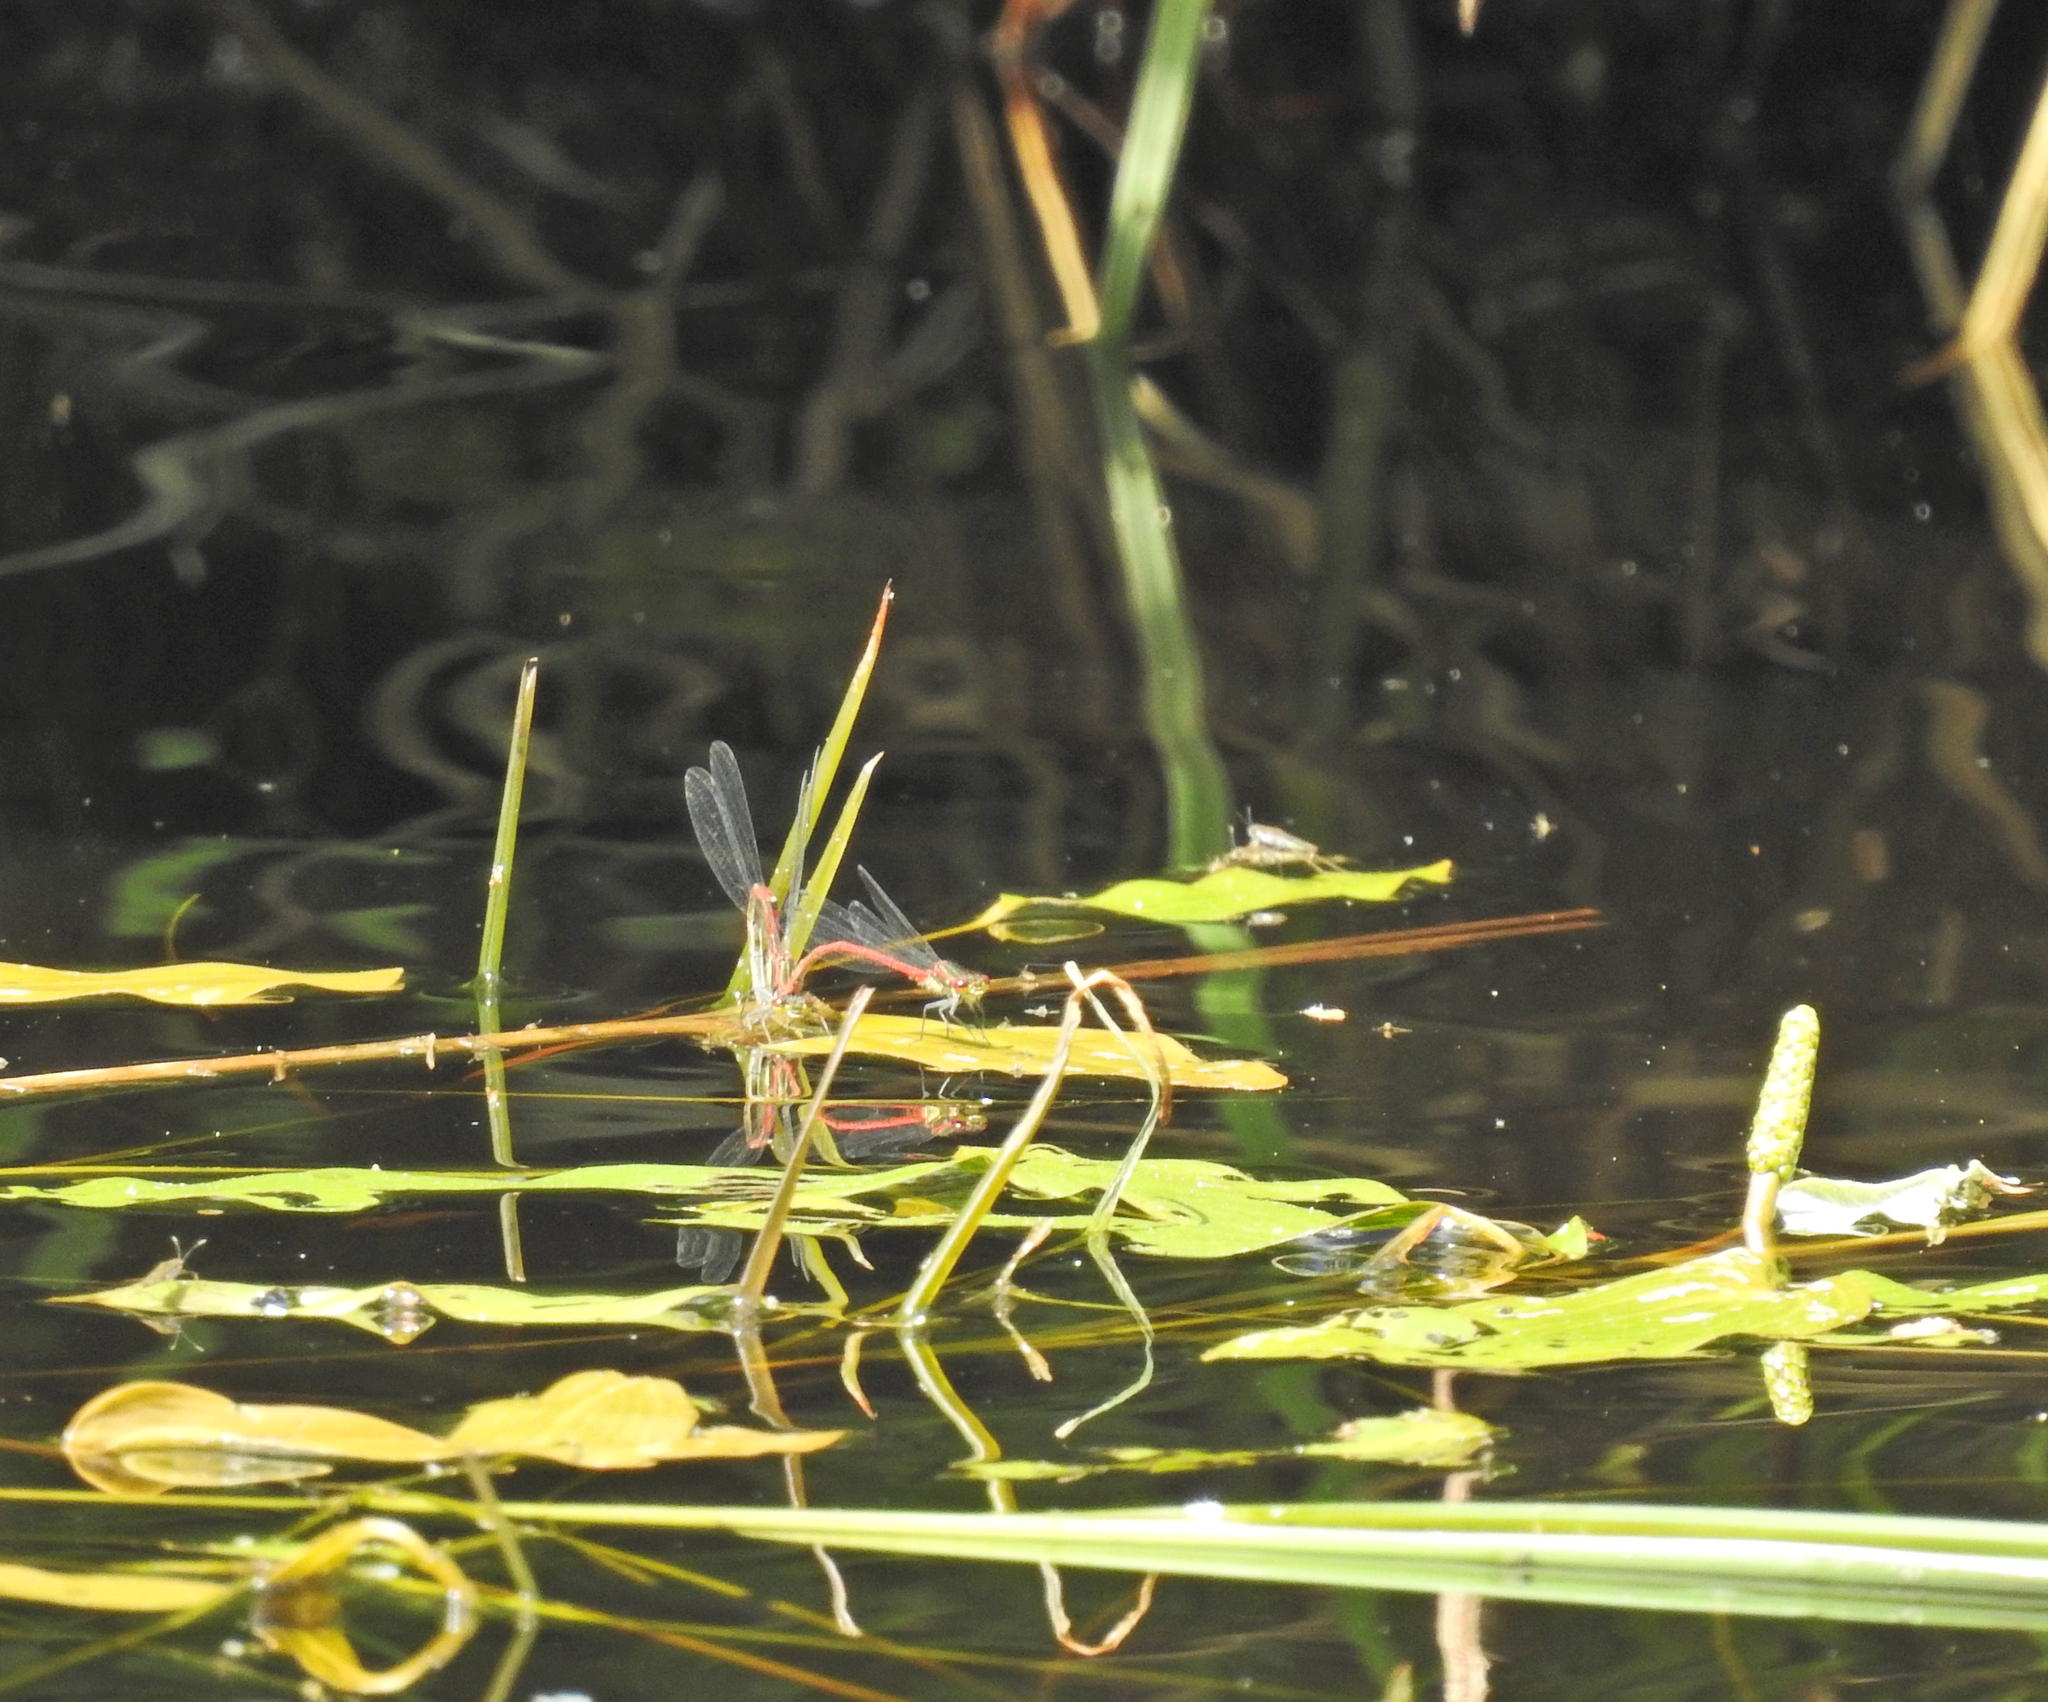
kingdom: Animalia
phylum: Arthropoda
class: Insecta
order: Odonata
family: Coenagrionidae
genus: Pyrrhosoma
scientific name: Pyrrhosoma nymphula
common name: Large red damsel
